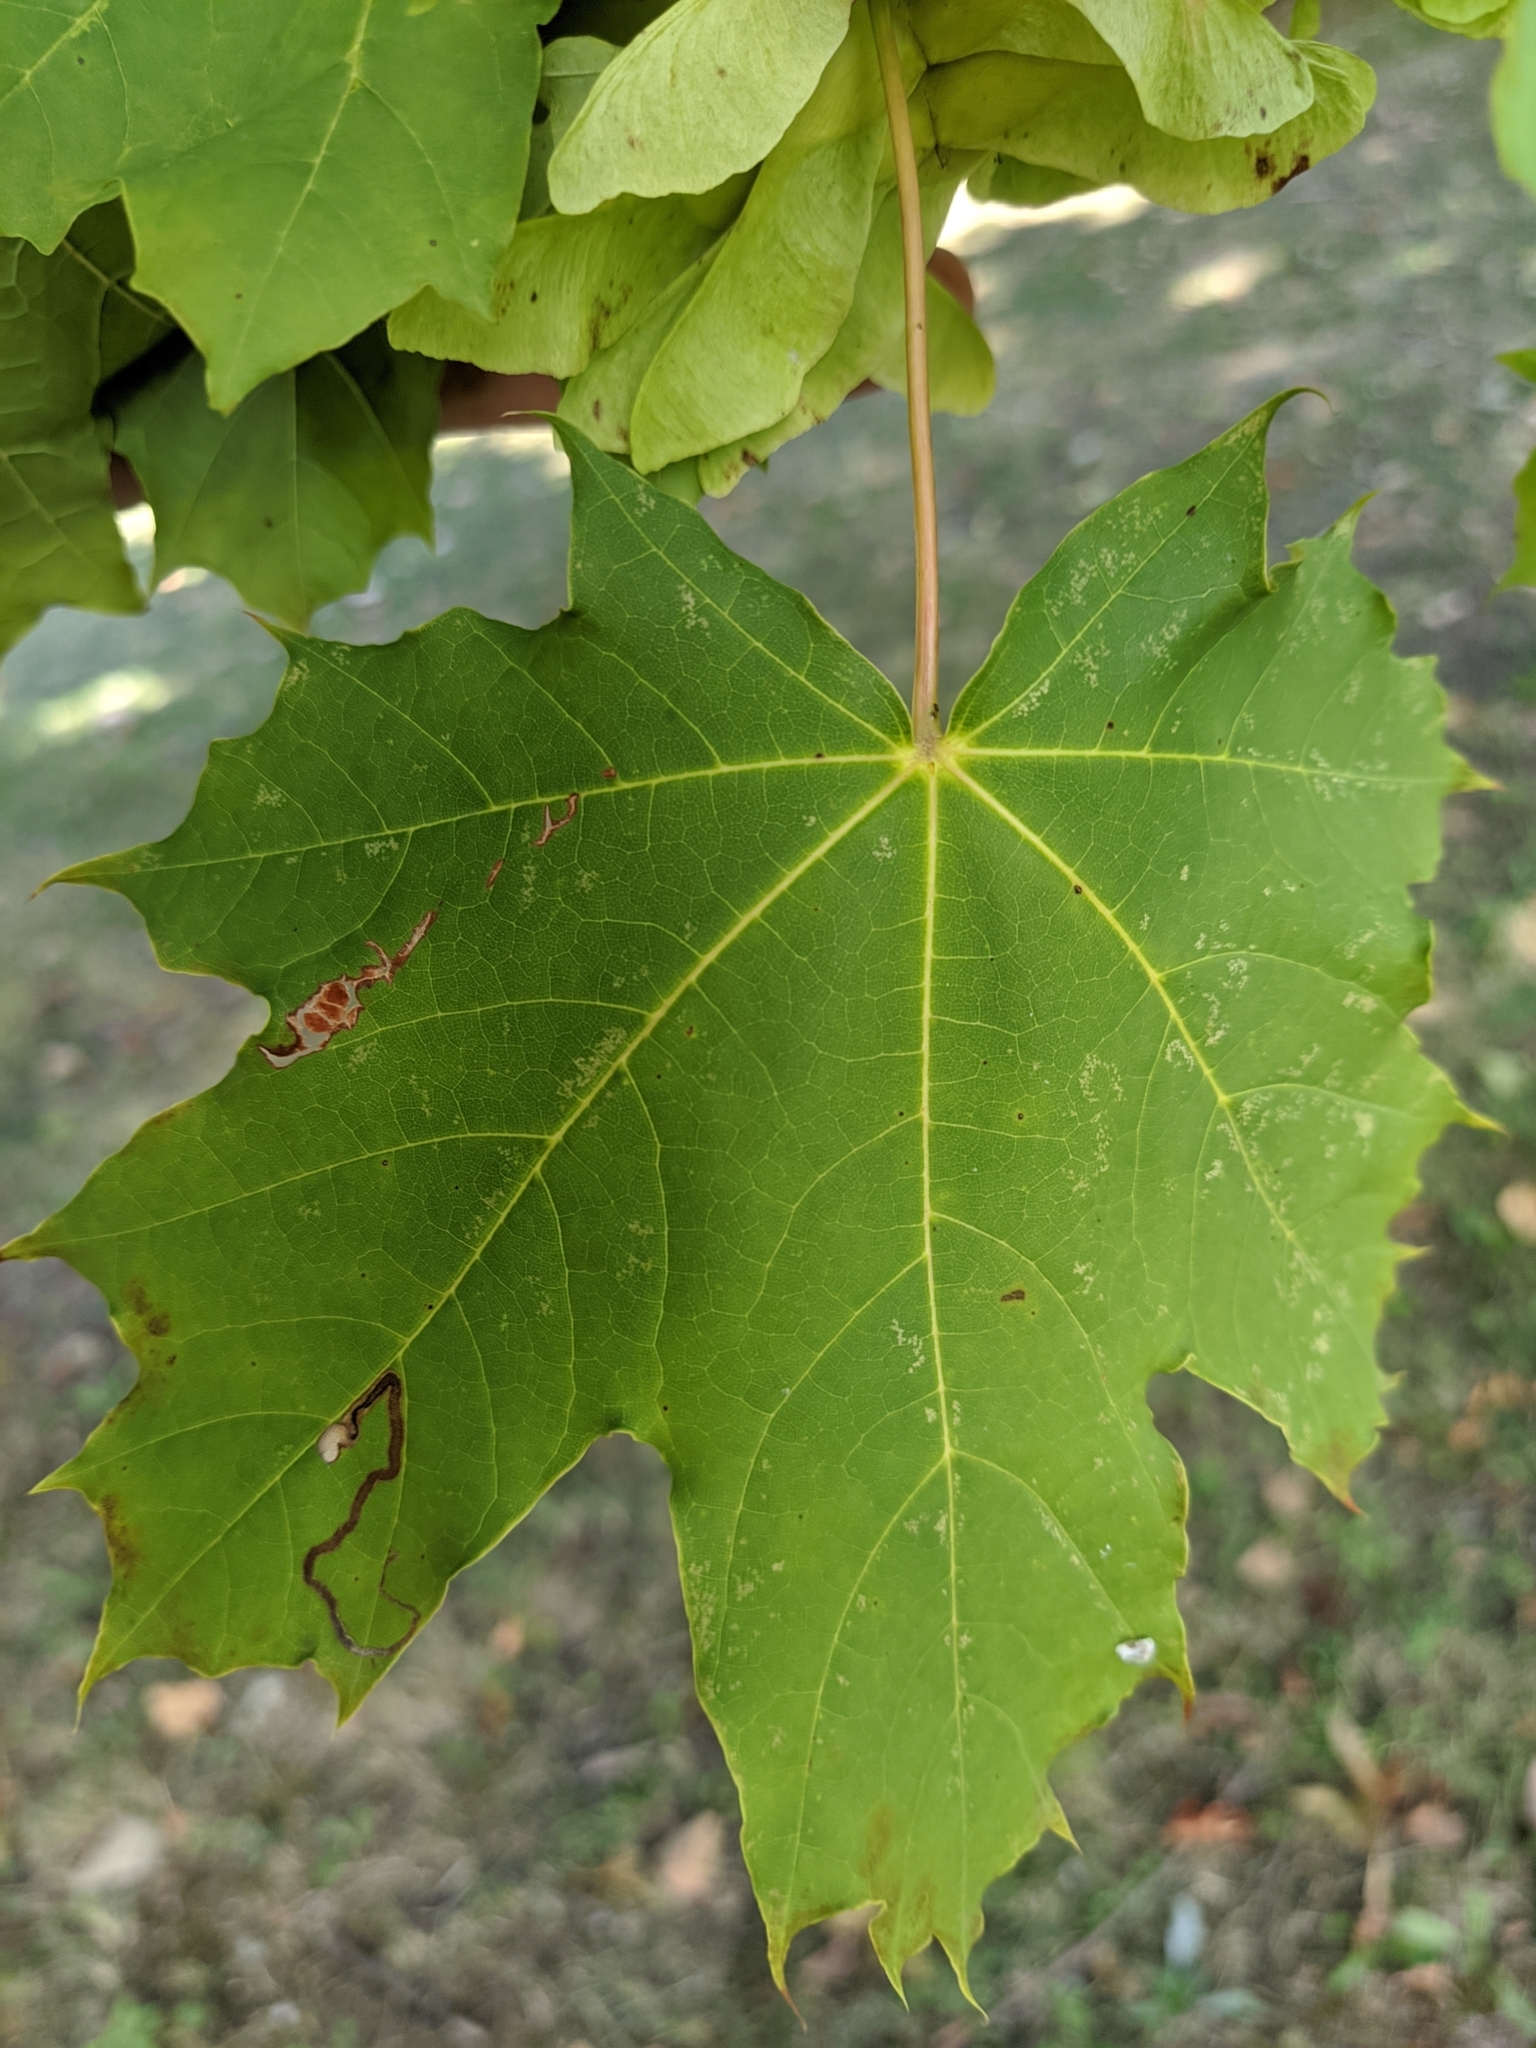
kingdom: Plantae
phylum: Tracheophyta
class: Magnoliopsida
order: Sapindales
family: Sapindaceae
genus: Acer
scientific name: Acer platanoides
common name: Norway maple
